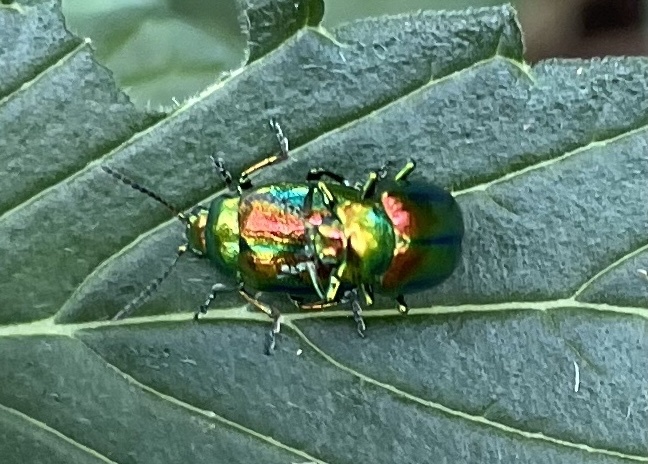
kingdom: Animalia
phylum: Arthropoda
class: Insecta
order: Coleoptera
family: Chrysomelidae
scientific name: Chrysomelidae
